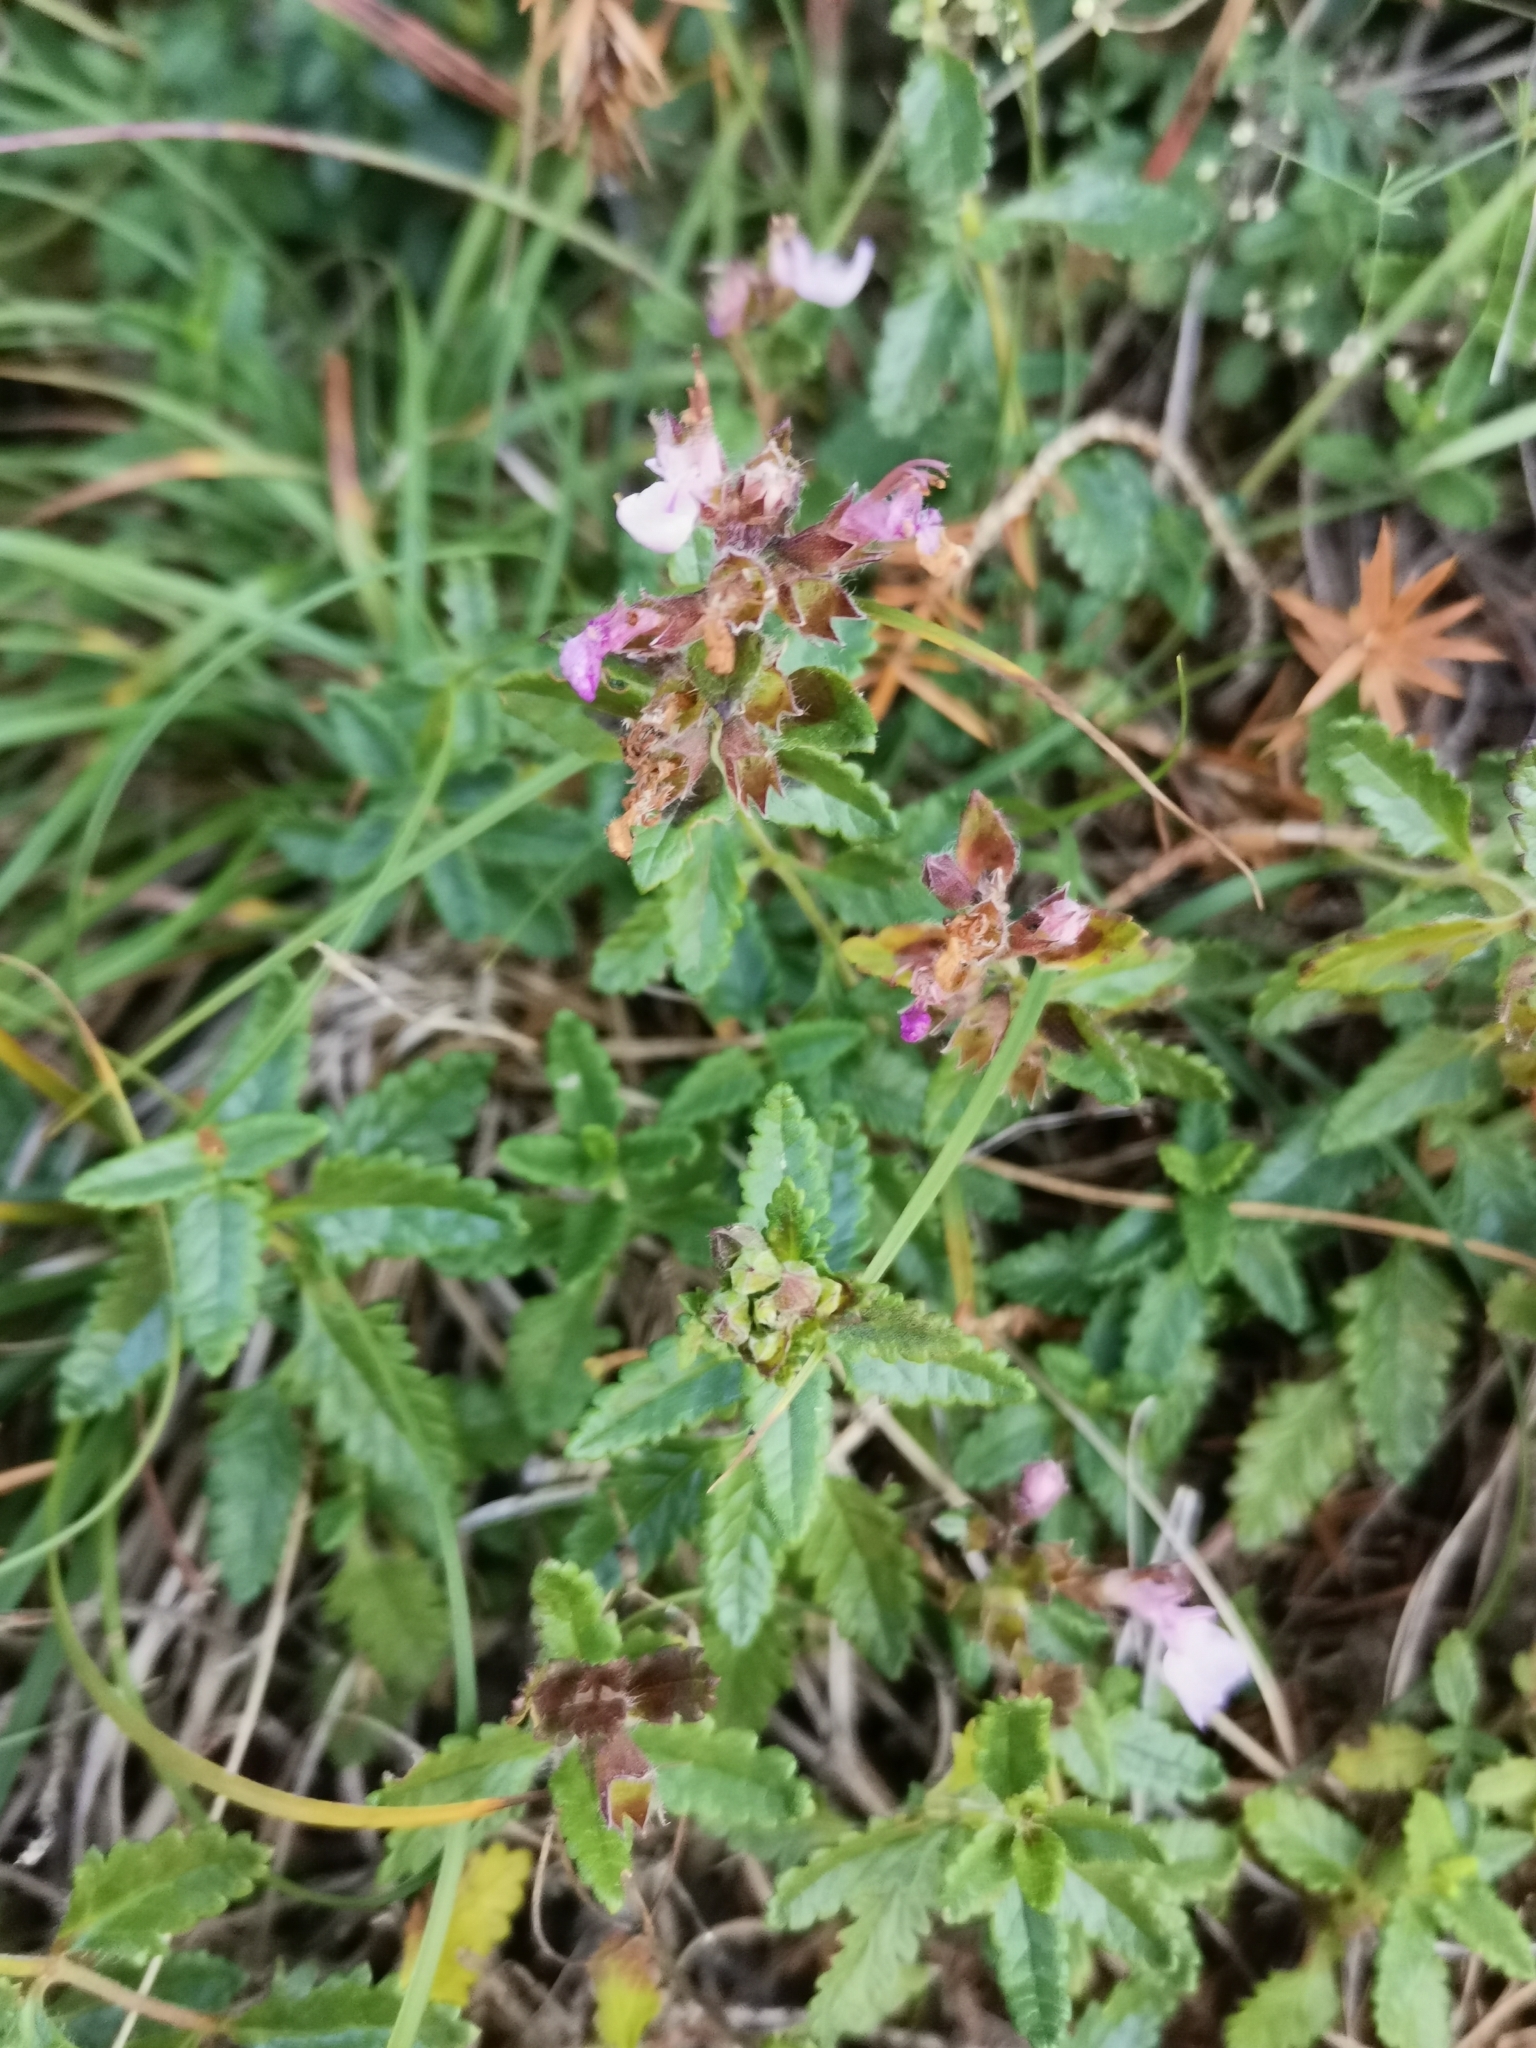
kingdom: Plantae
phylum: Tracheophyta
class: Magnoliopsida
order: Lamiales
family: Lamiaceae
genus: Teucrium
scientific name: Teucrium chamaedrys
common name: Wall germander
